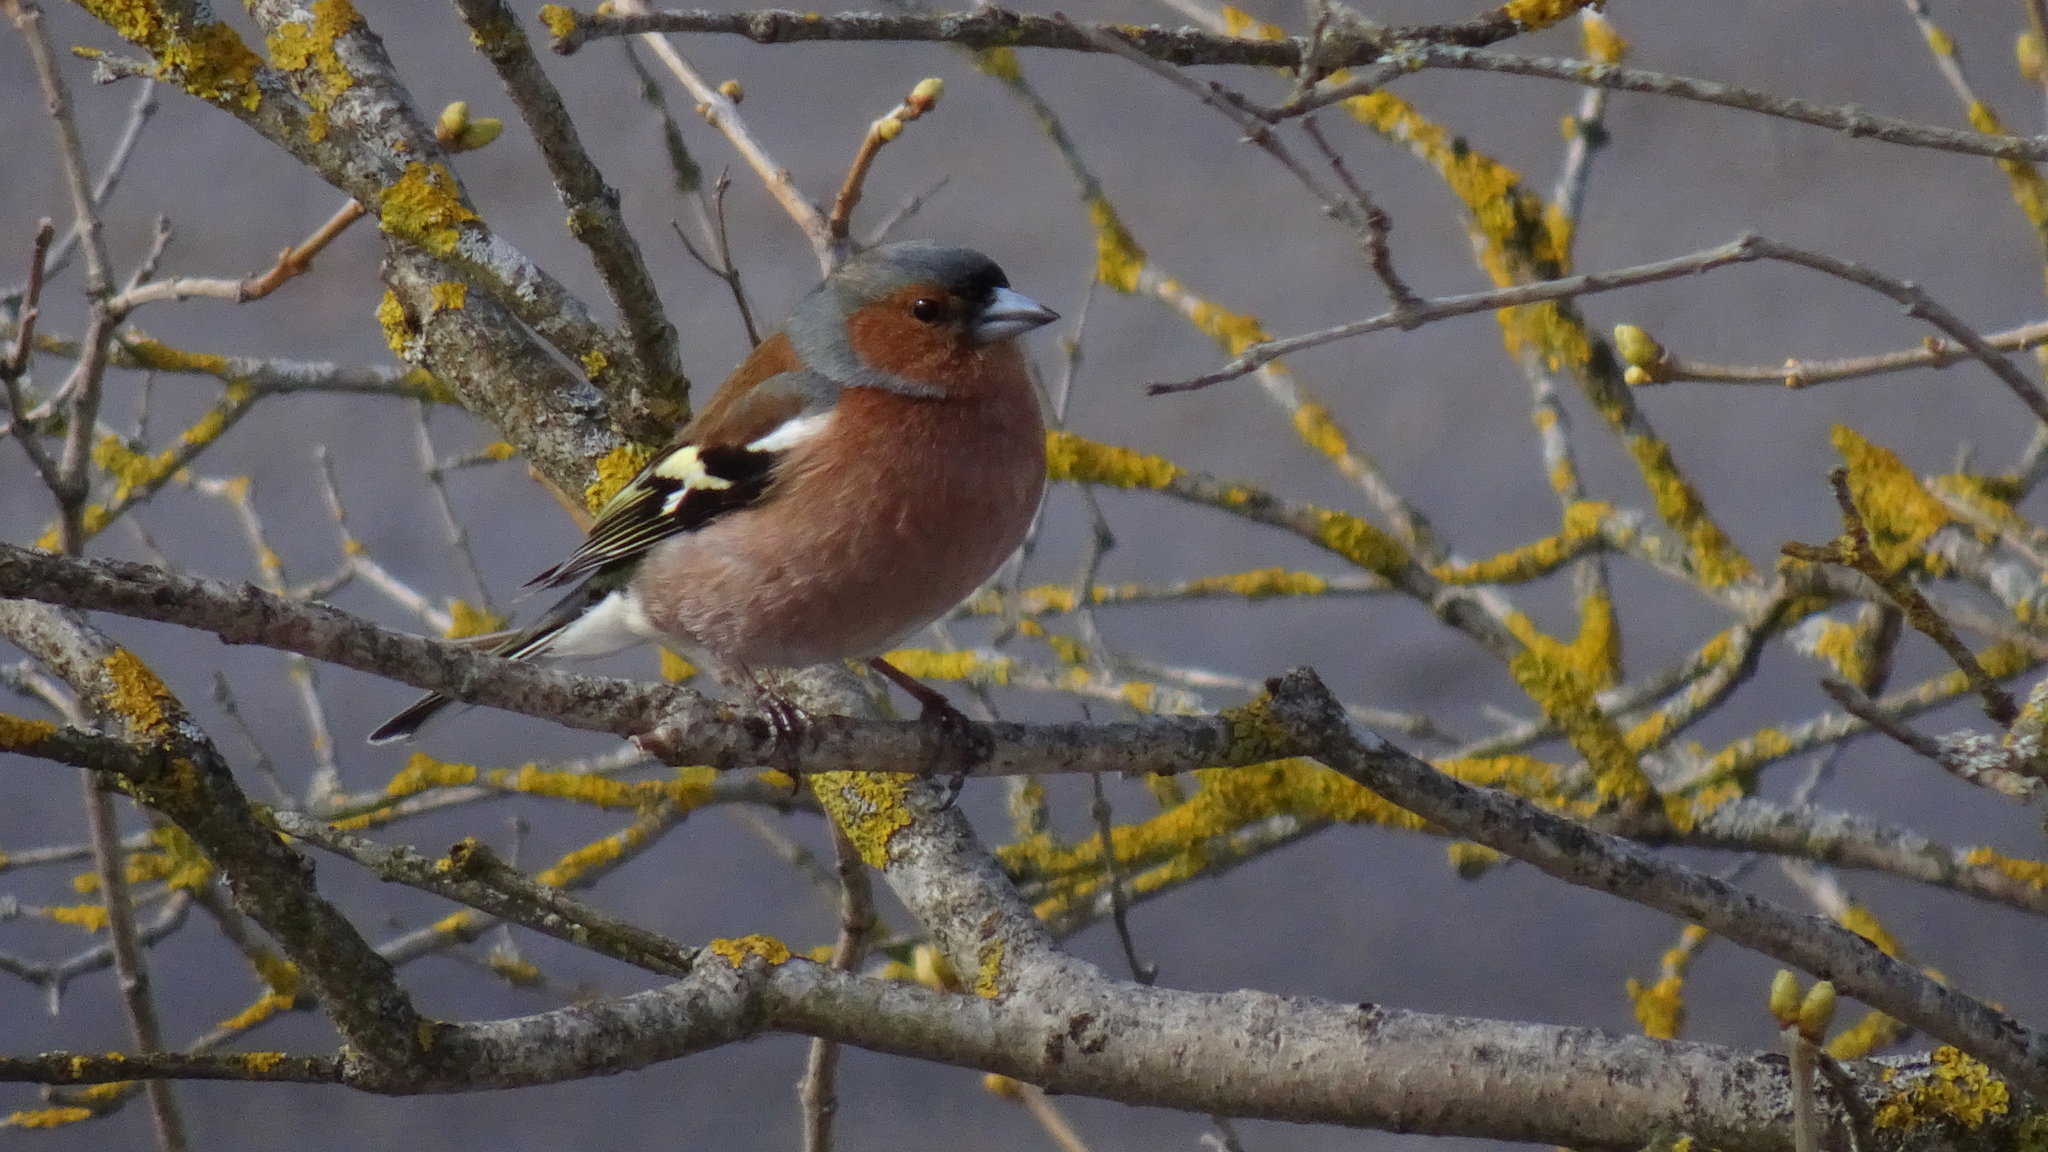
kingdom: Animalia
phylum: Chordata
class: Aves
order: Passeriformes
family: Fringillidae
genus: Fringilla
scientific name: Fringilla coelebs
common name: Common chaffinch
